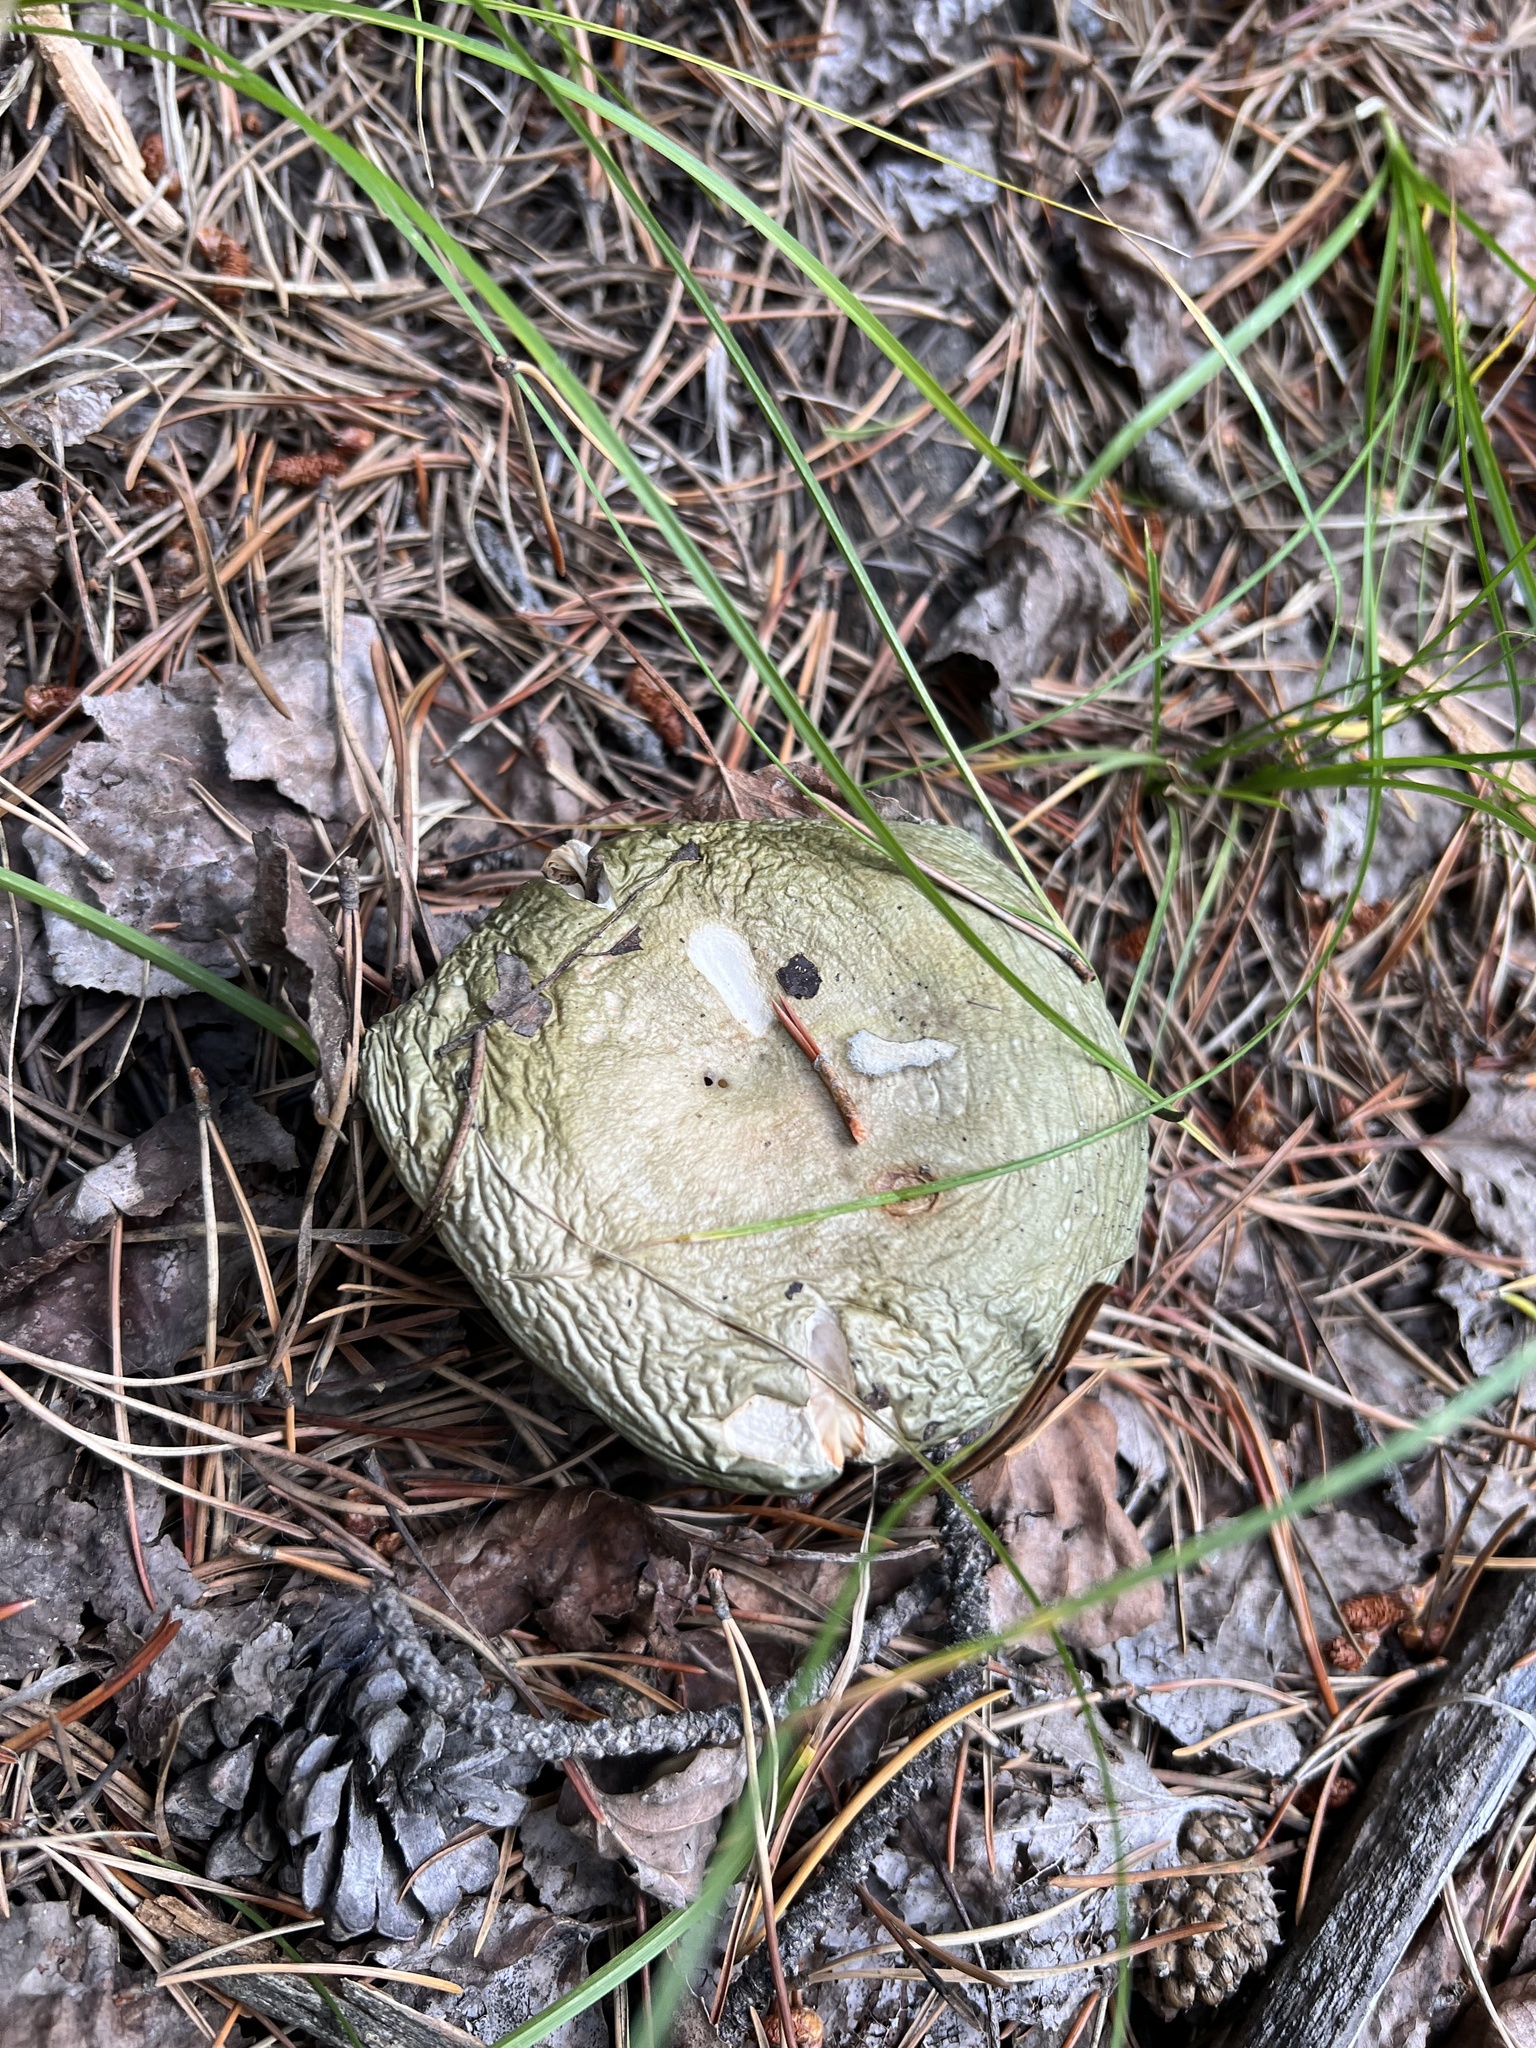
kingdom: Fungi
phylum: Basidiomycota
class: Agaricomycetes
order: Russulales
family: Russulaceae
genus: Russula
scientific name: Russula aeruginea
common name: Green brittlegill
